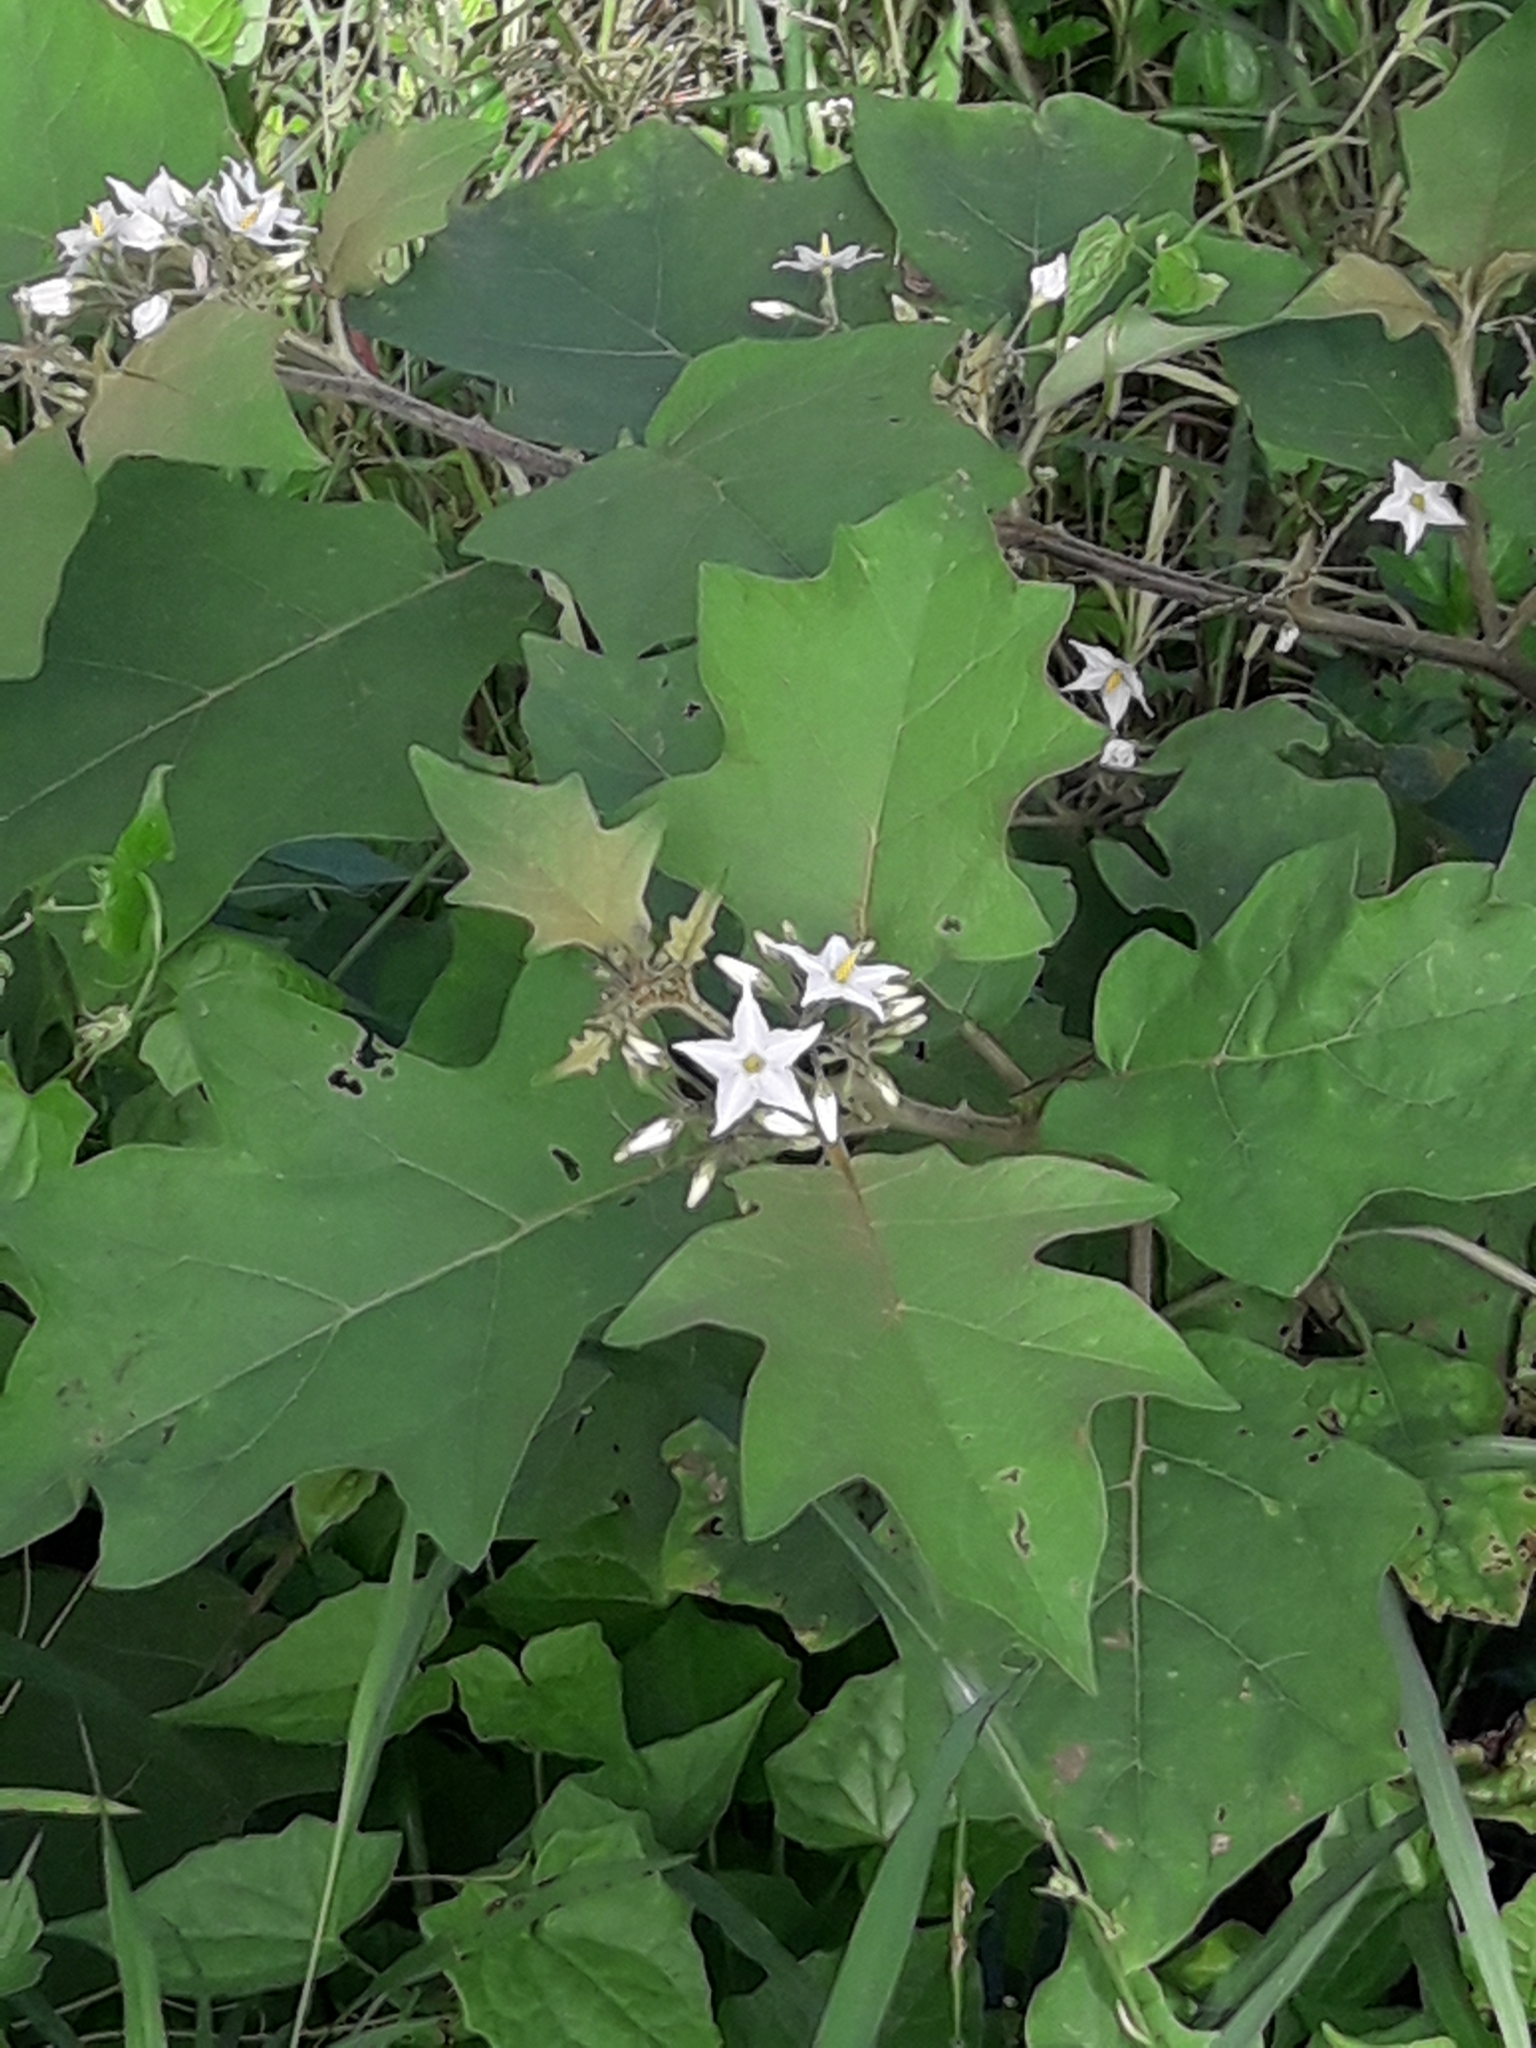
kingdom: Plantae
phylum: Tracheophyta
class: Magnoliopsida
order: Solanales
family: Solanaceae
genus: Solanum
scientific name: Solanum torvum
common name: Turkey berry
